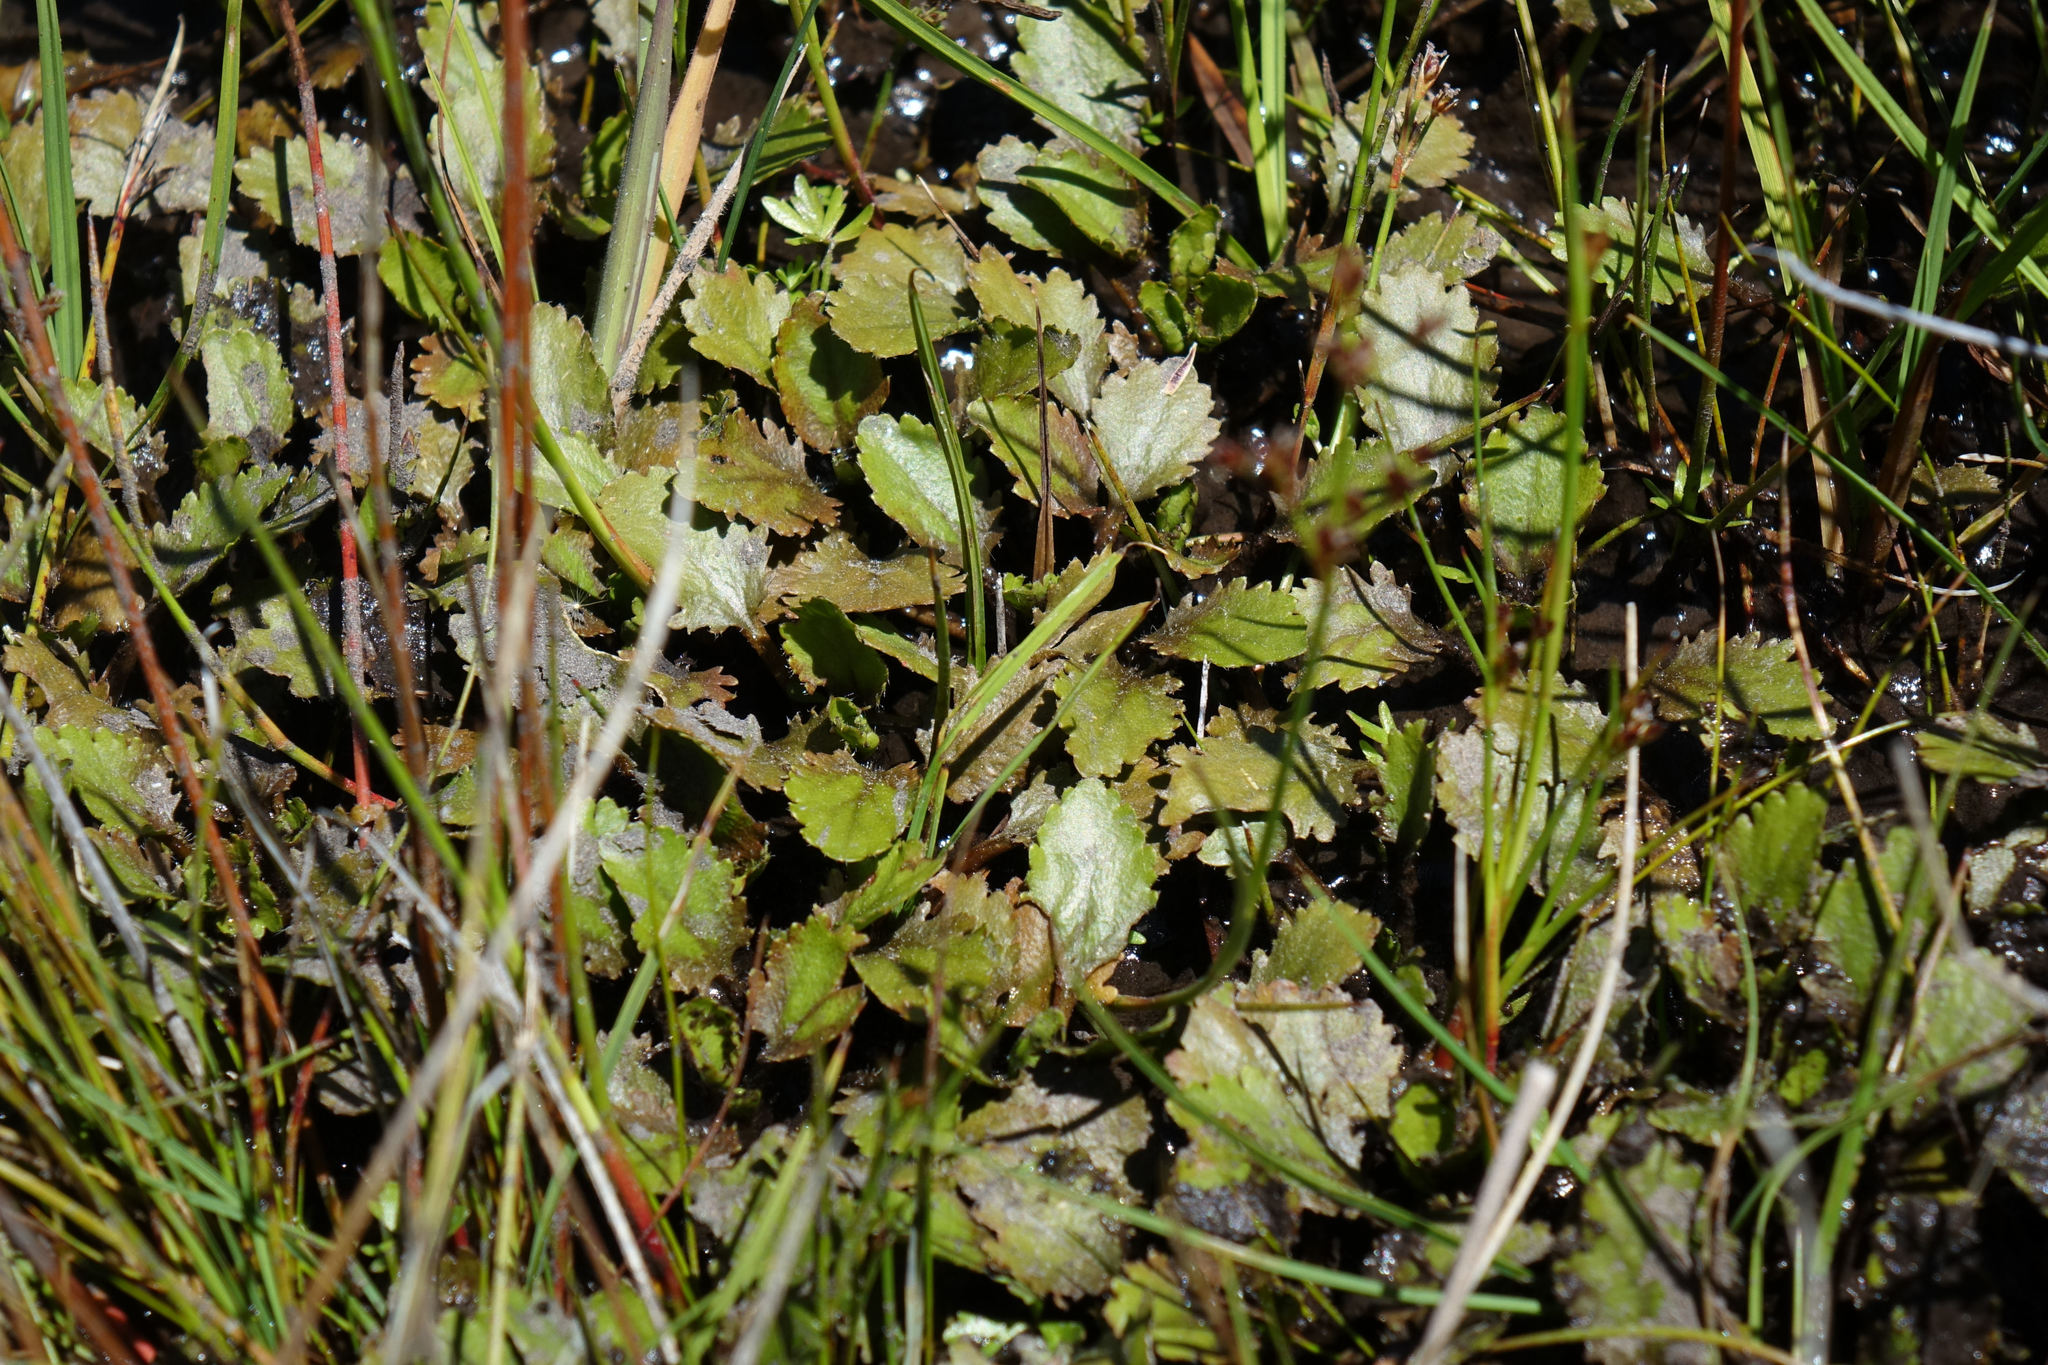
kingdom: Plantae
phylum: Tracheophyta
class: Magnoliopsida
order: Gunnerales
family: Gunneraceae
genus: Gunnera
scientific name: Gunnera dentata
